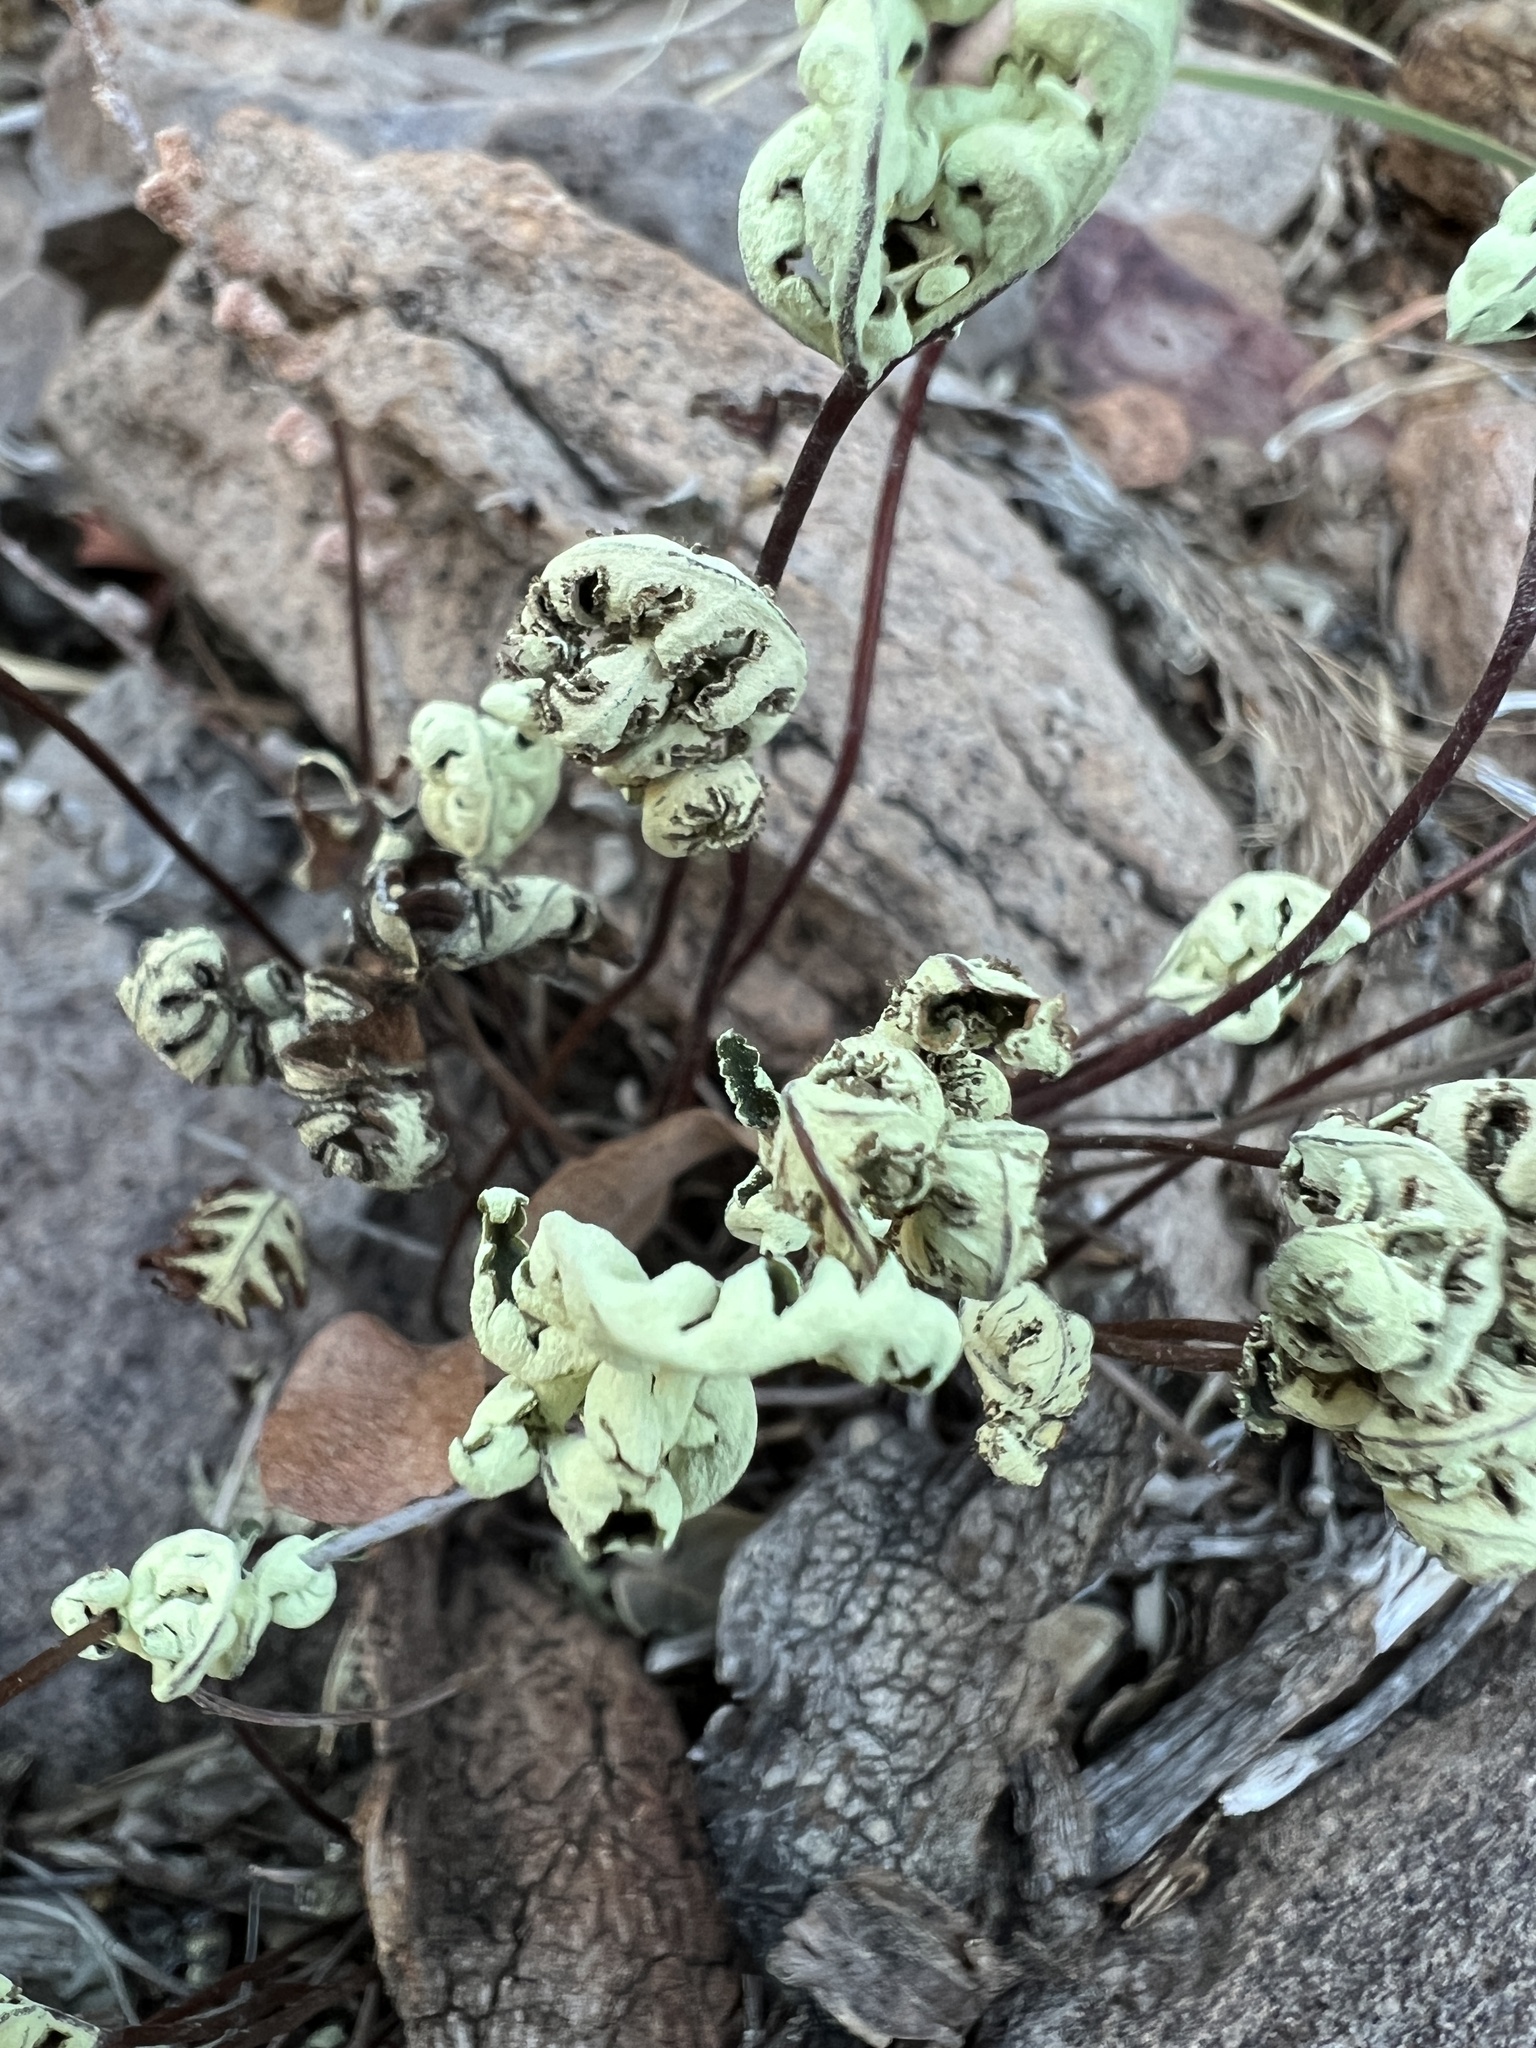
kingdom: Plantae
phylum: Tracheophyta
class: Polypodiopsida
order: Polypodiales
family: Pteridaceae
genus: Notholaena
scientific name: Notholaena standleyi
